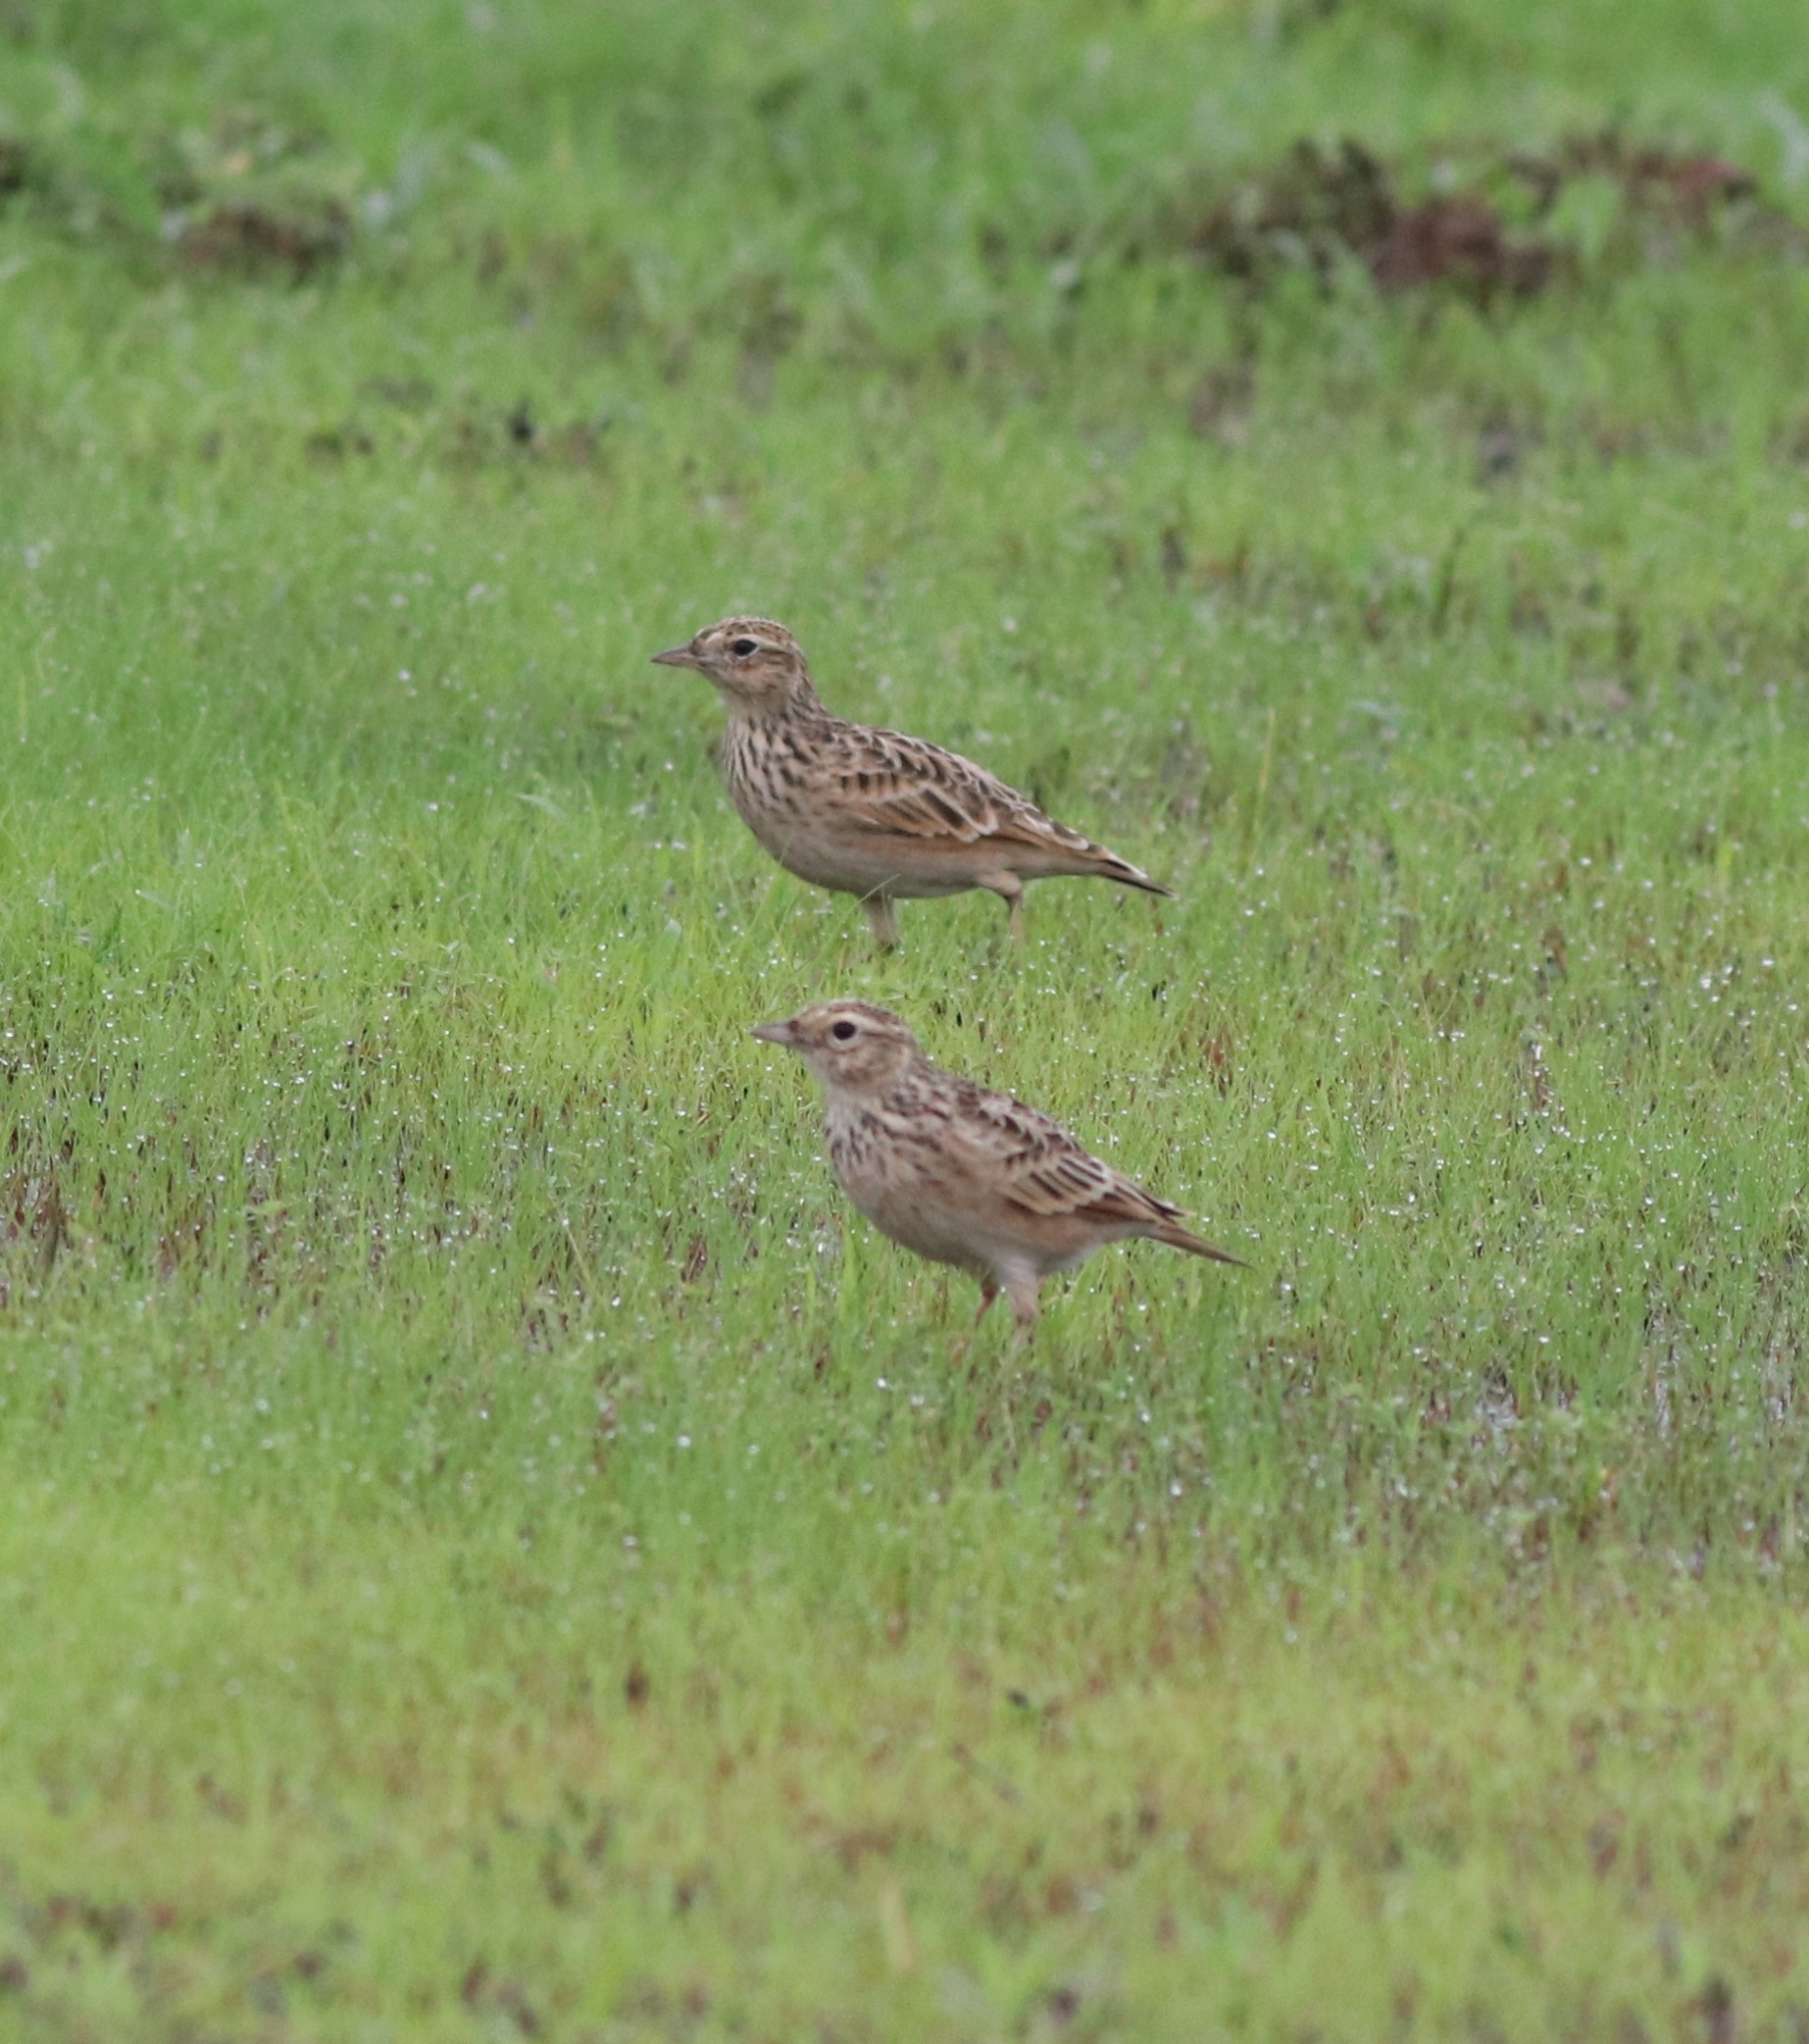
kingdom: Animalia
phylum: Chordata
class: Aves
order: Passeriformes
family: Alaudidae
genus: Alauda
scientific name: Alauda gulgula
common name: Oriental skylark
